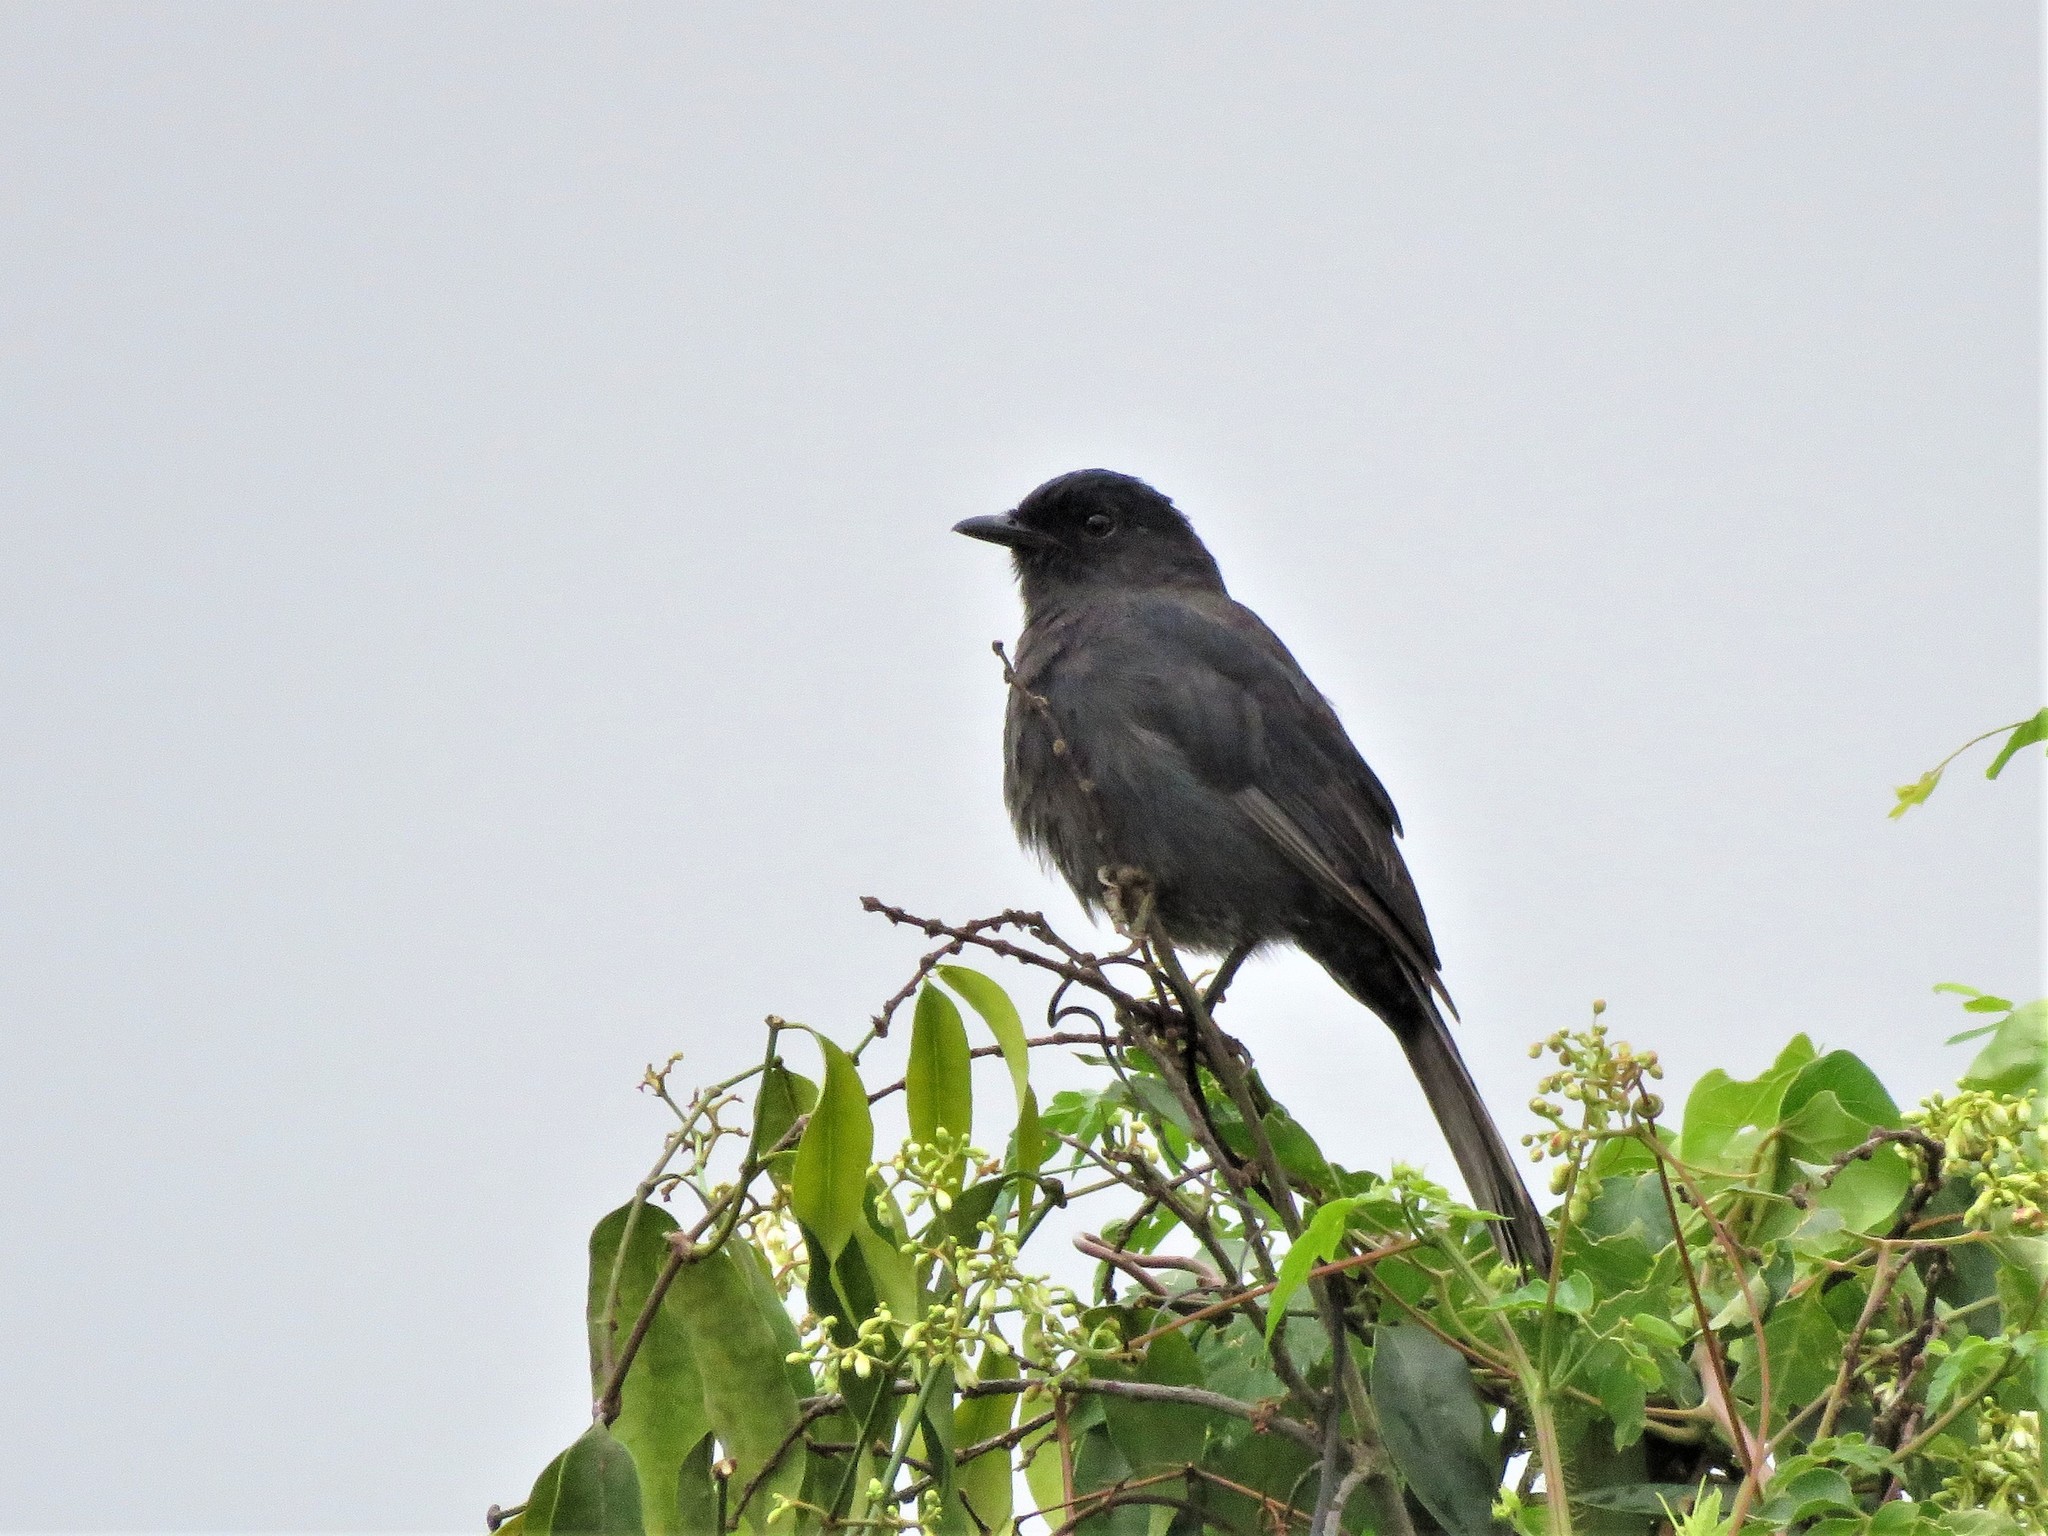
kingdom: Animalia
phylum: Chordata
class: Aves
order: Passeriformes
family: Muscicapidae
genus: Melaenornis
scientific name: Melaenornis edolioides
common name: Northern black flycatcher
